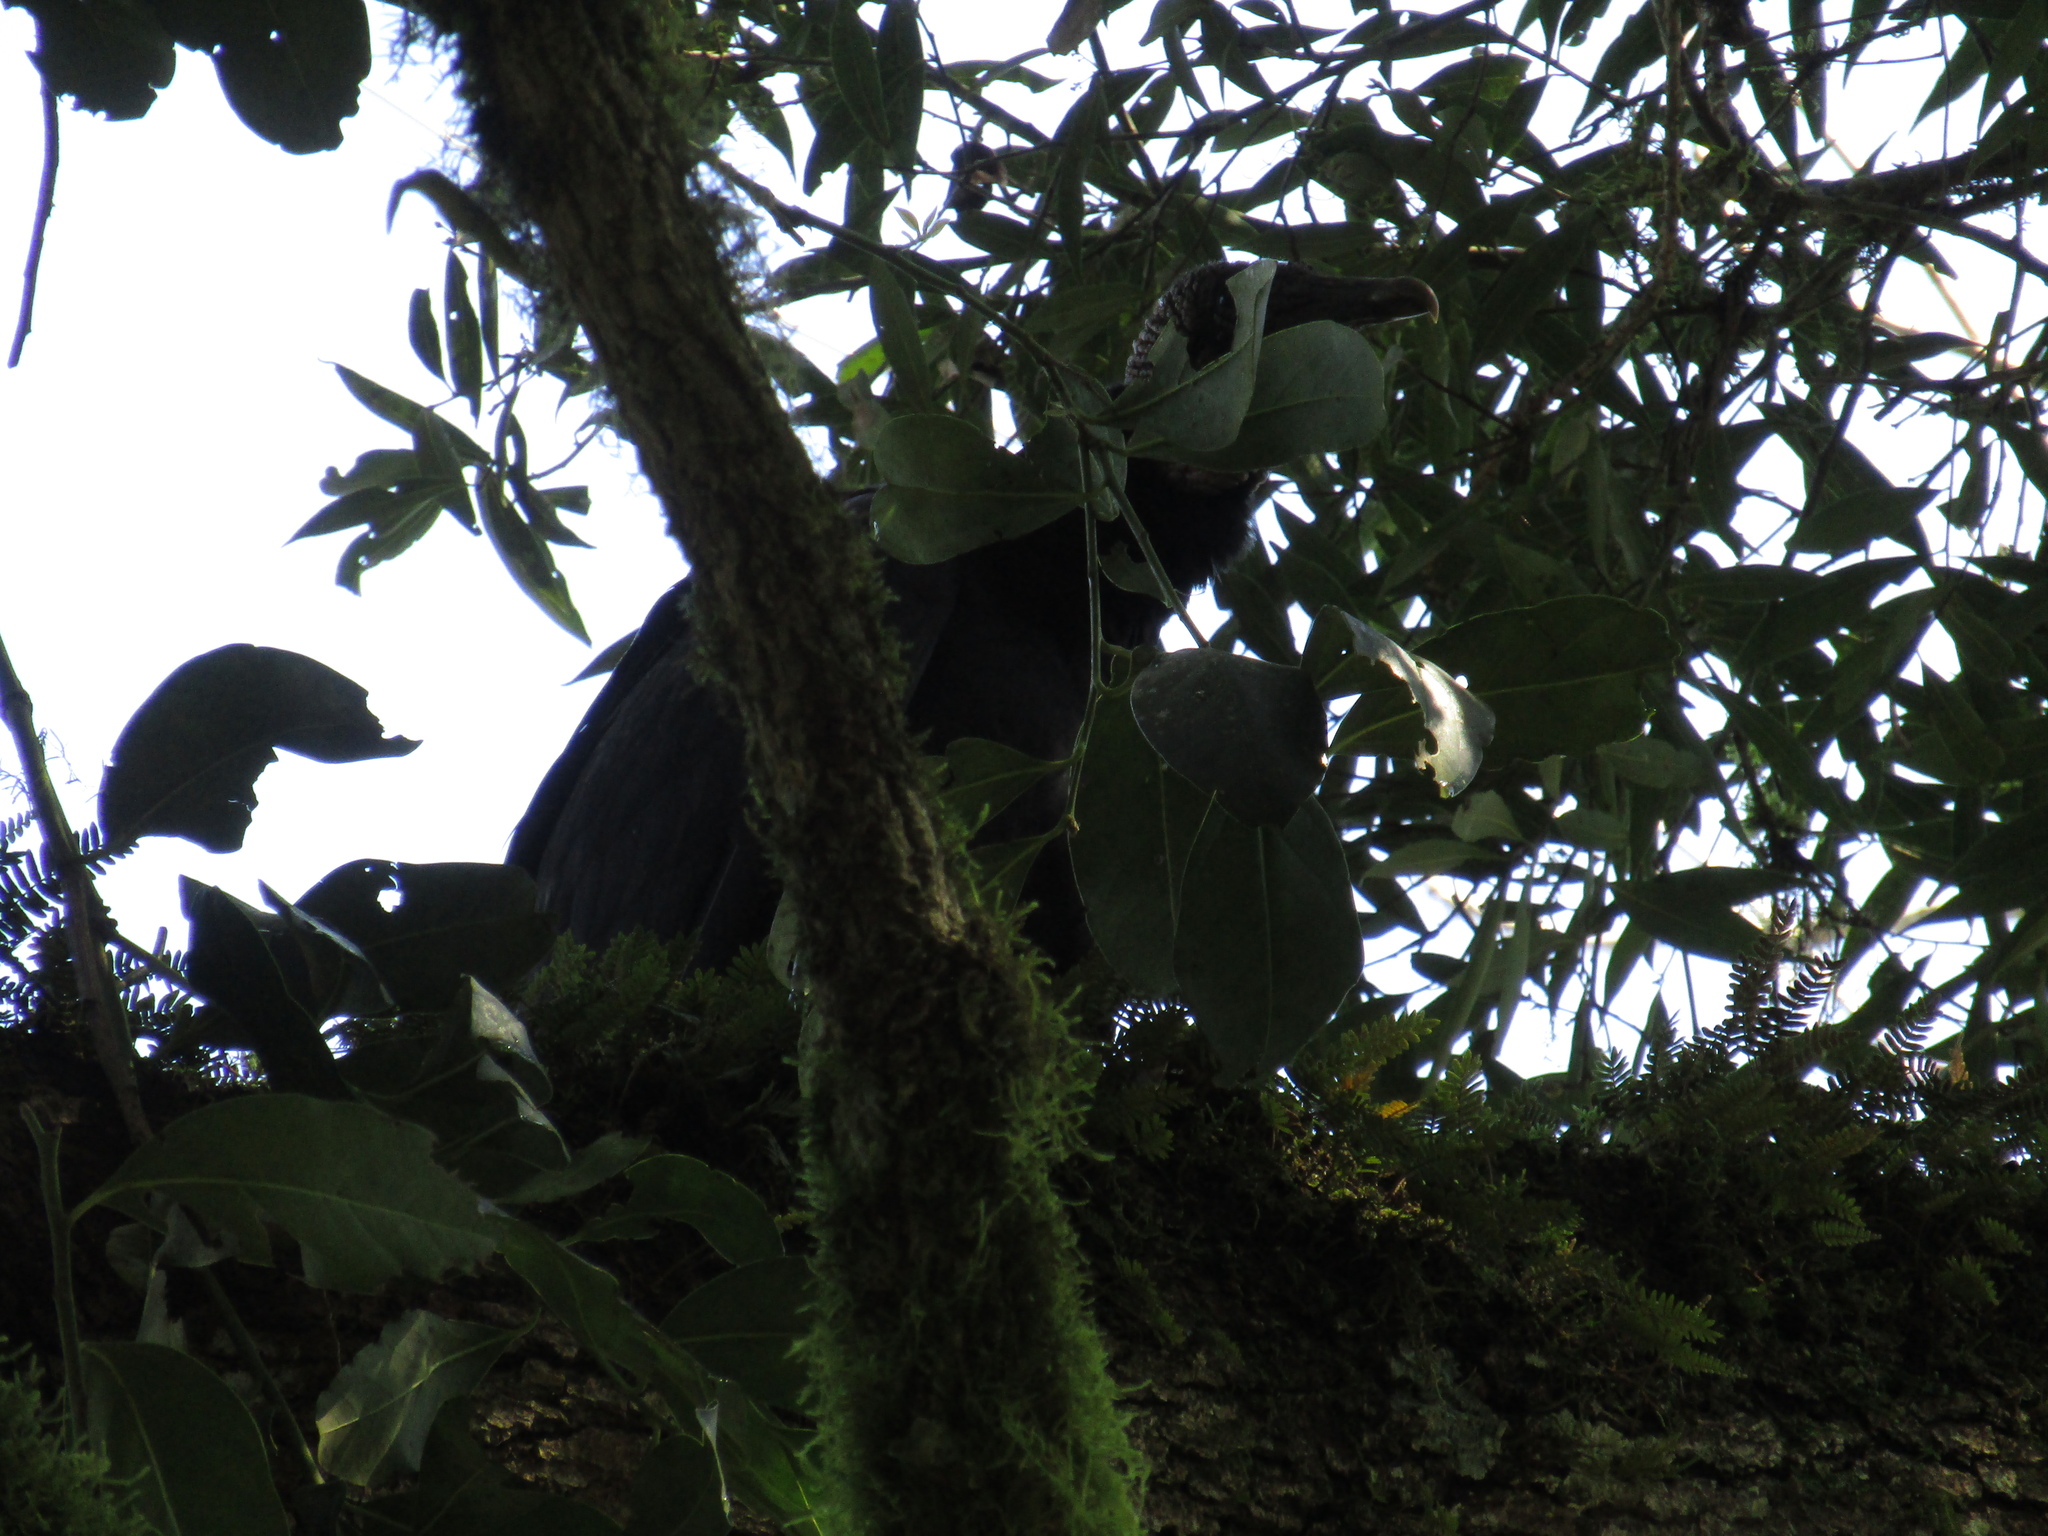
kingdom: Animalia
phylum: Chordata
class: Aves
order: Accipitriformes
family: Cathartidae
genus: Coragyps
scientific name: Coragyps atratus
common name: Black vulture
